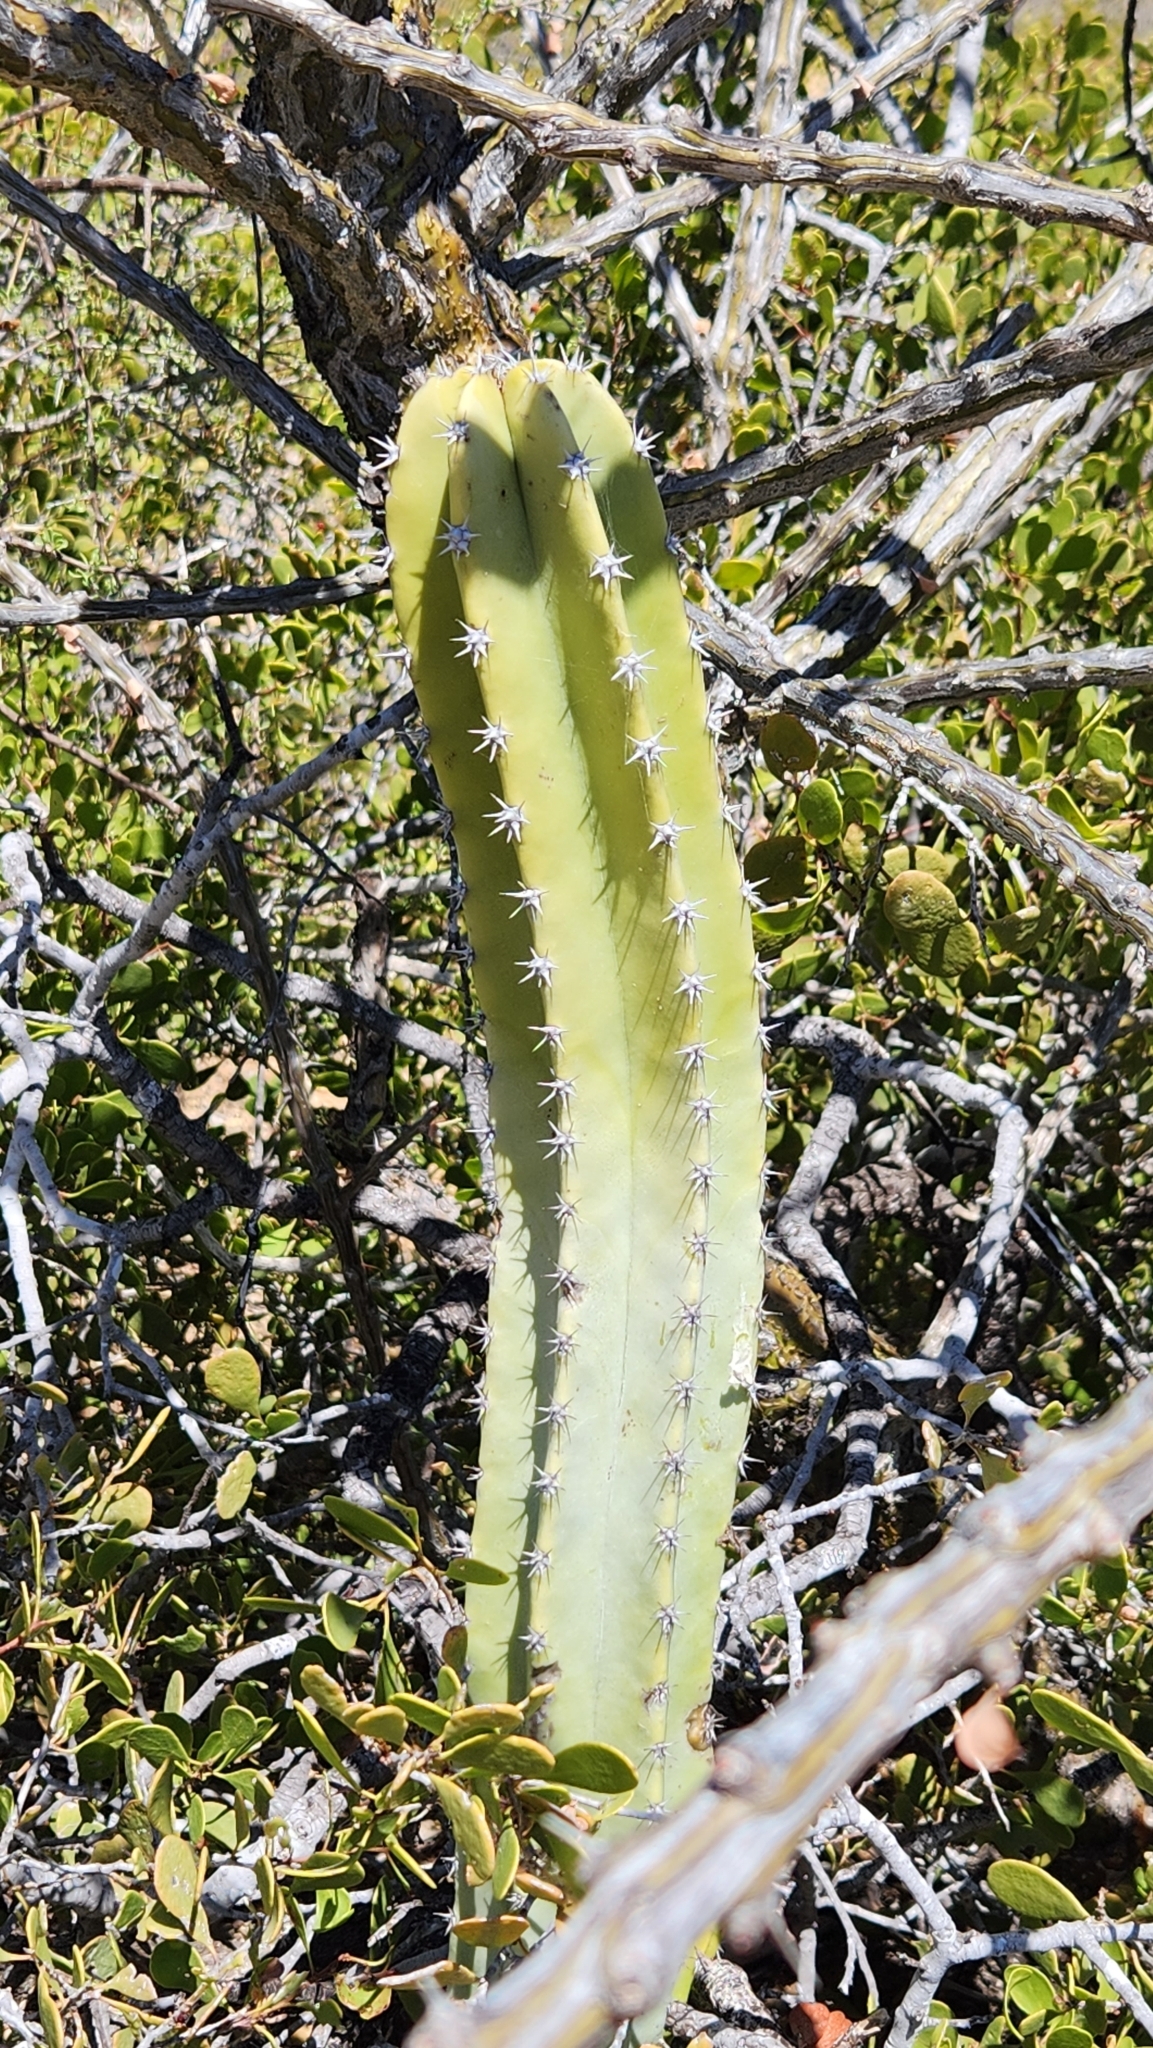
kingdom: Plantae
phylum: Tracheophyta
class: Magnoliopsida
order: Caryophyllales
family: Cactaceae
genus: Pachycereus
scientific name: Pachycereus schottii
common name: Senita cactus
